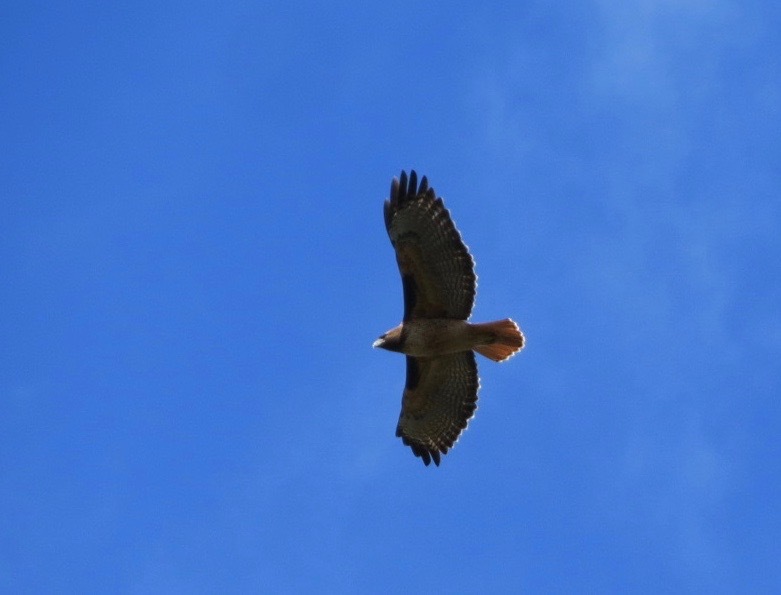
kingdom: Animalia
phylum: Chordata
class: Aves
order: Accipitriformes
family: Accipitridae
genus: Buteo
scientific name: Buteo jamaicensis
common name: Red-tailed hawk
